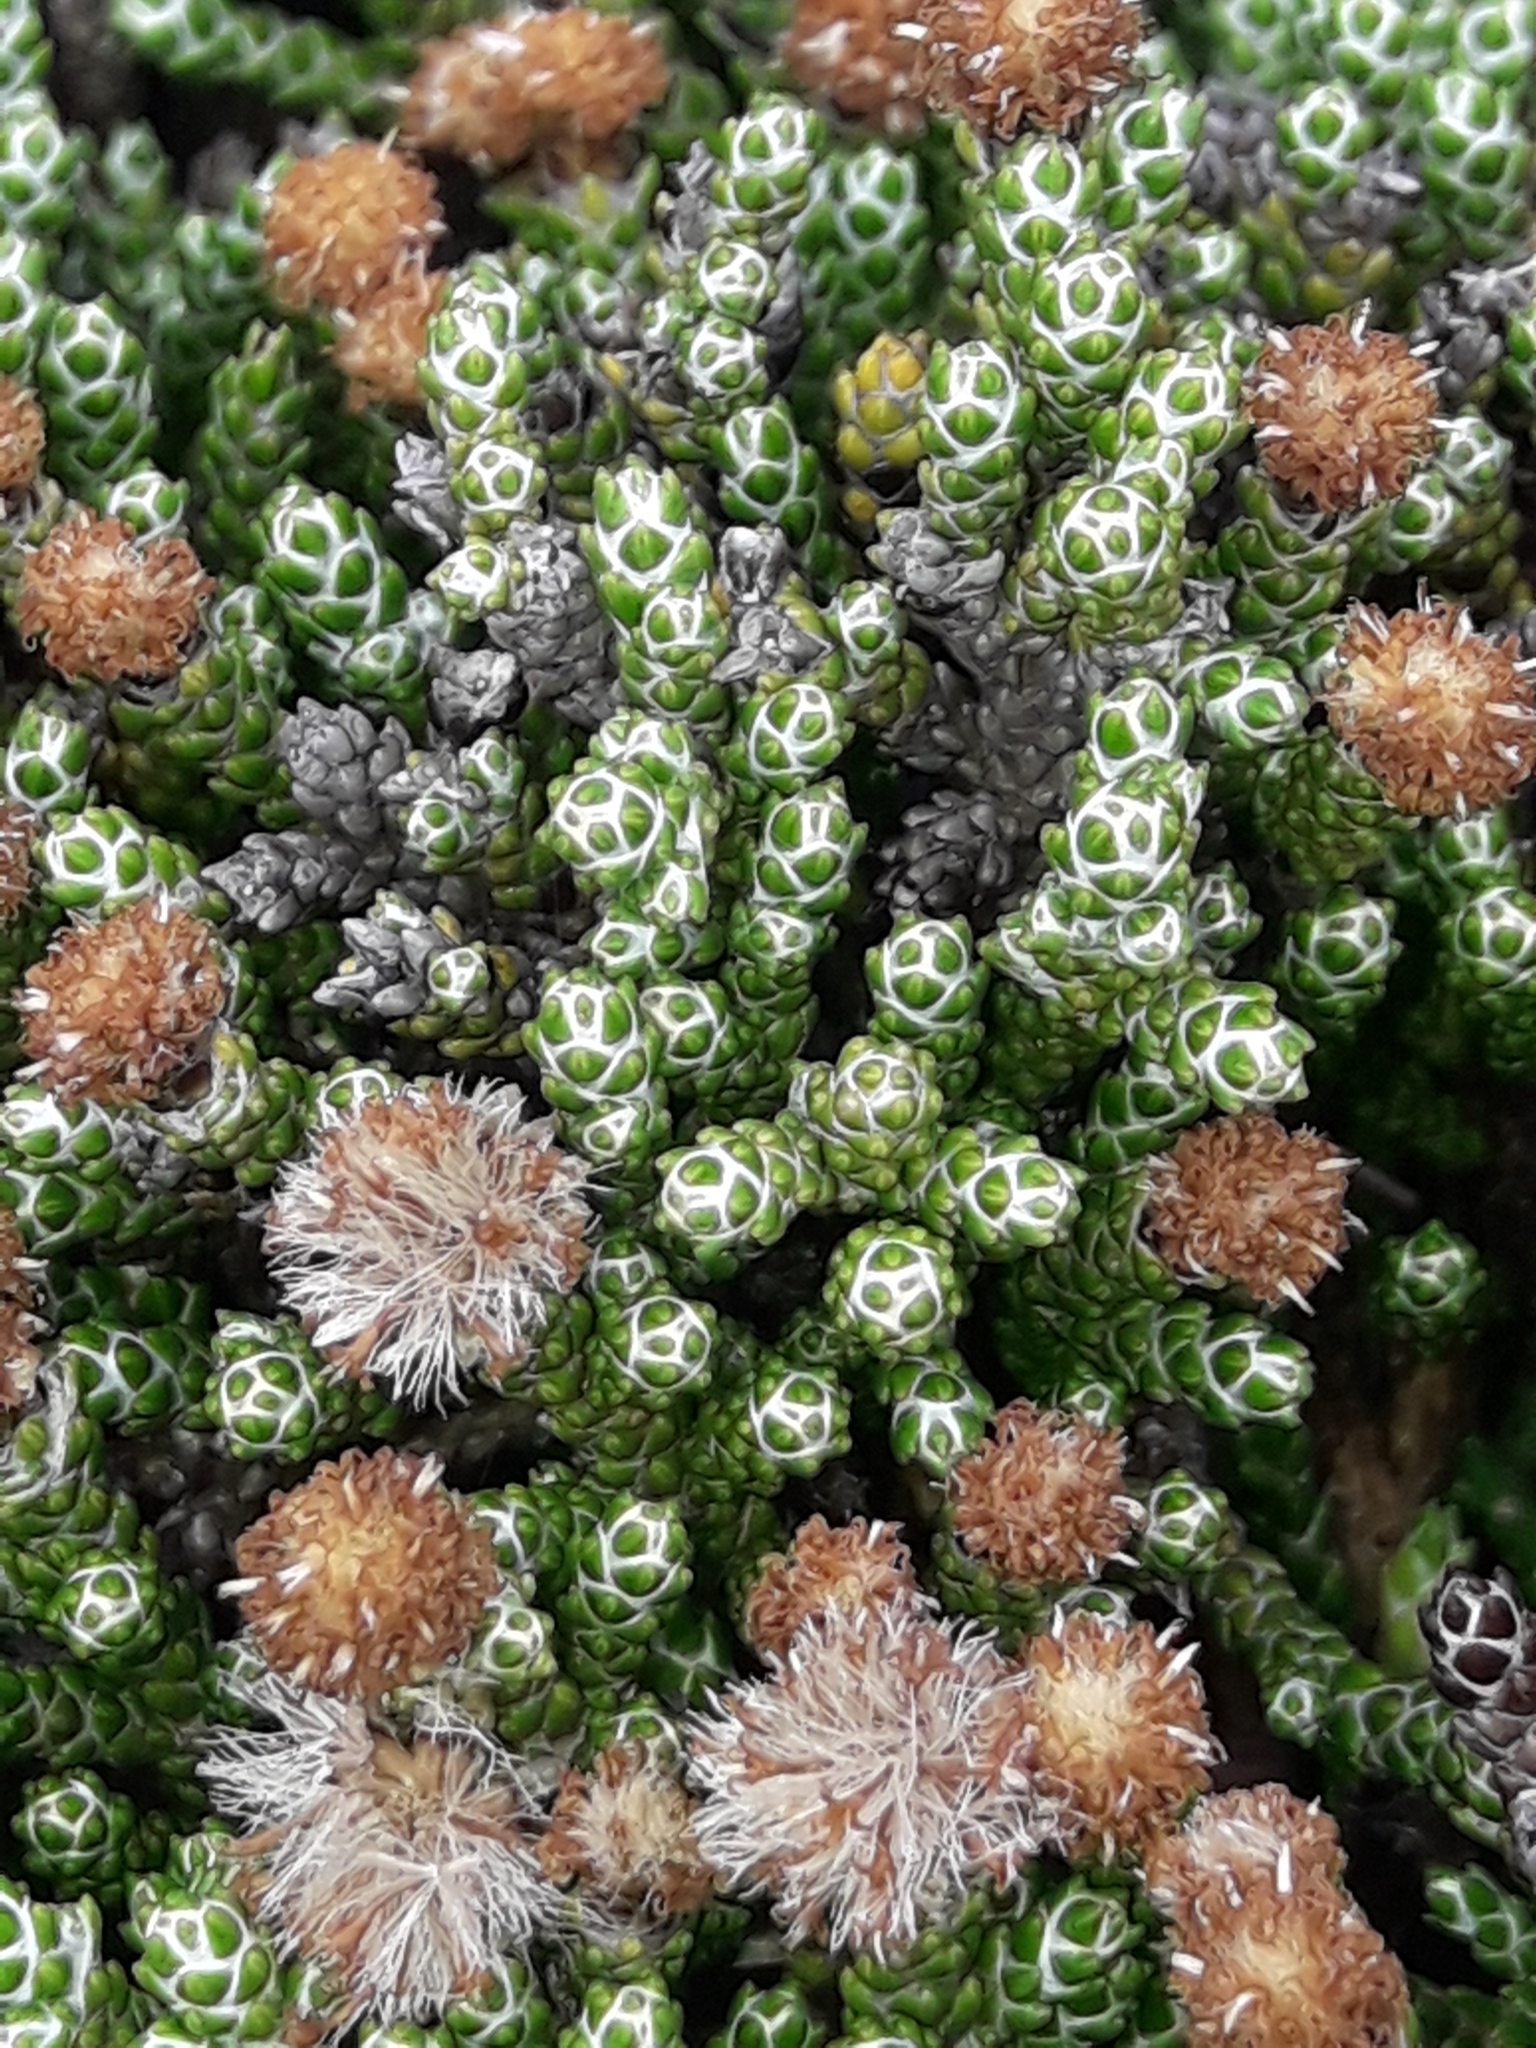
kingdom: Plantae
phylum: Tracheophyta
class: Magnoliopsida
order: Asterales
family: Asteraceae
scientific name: Asteraceae
